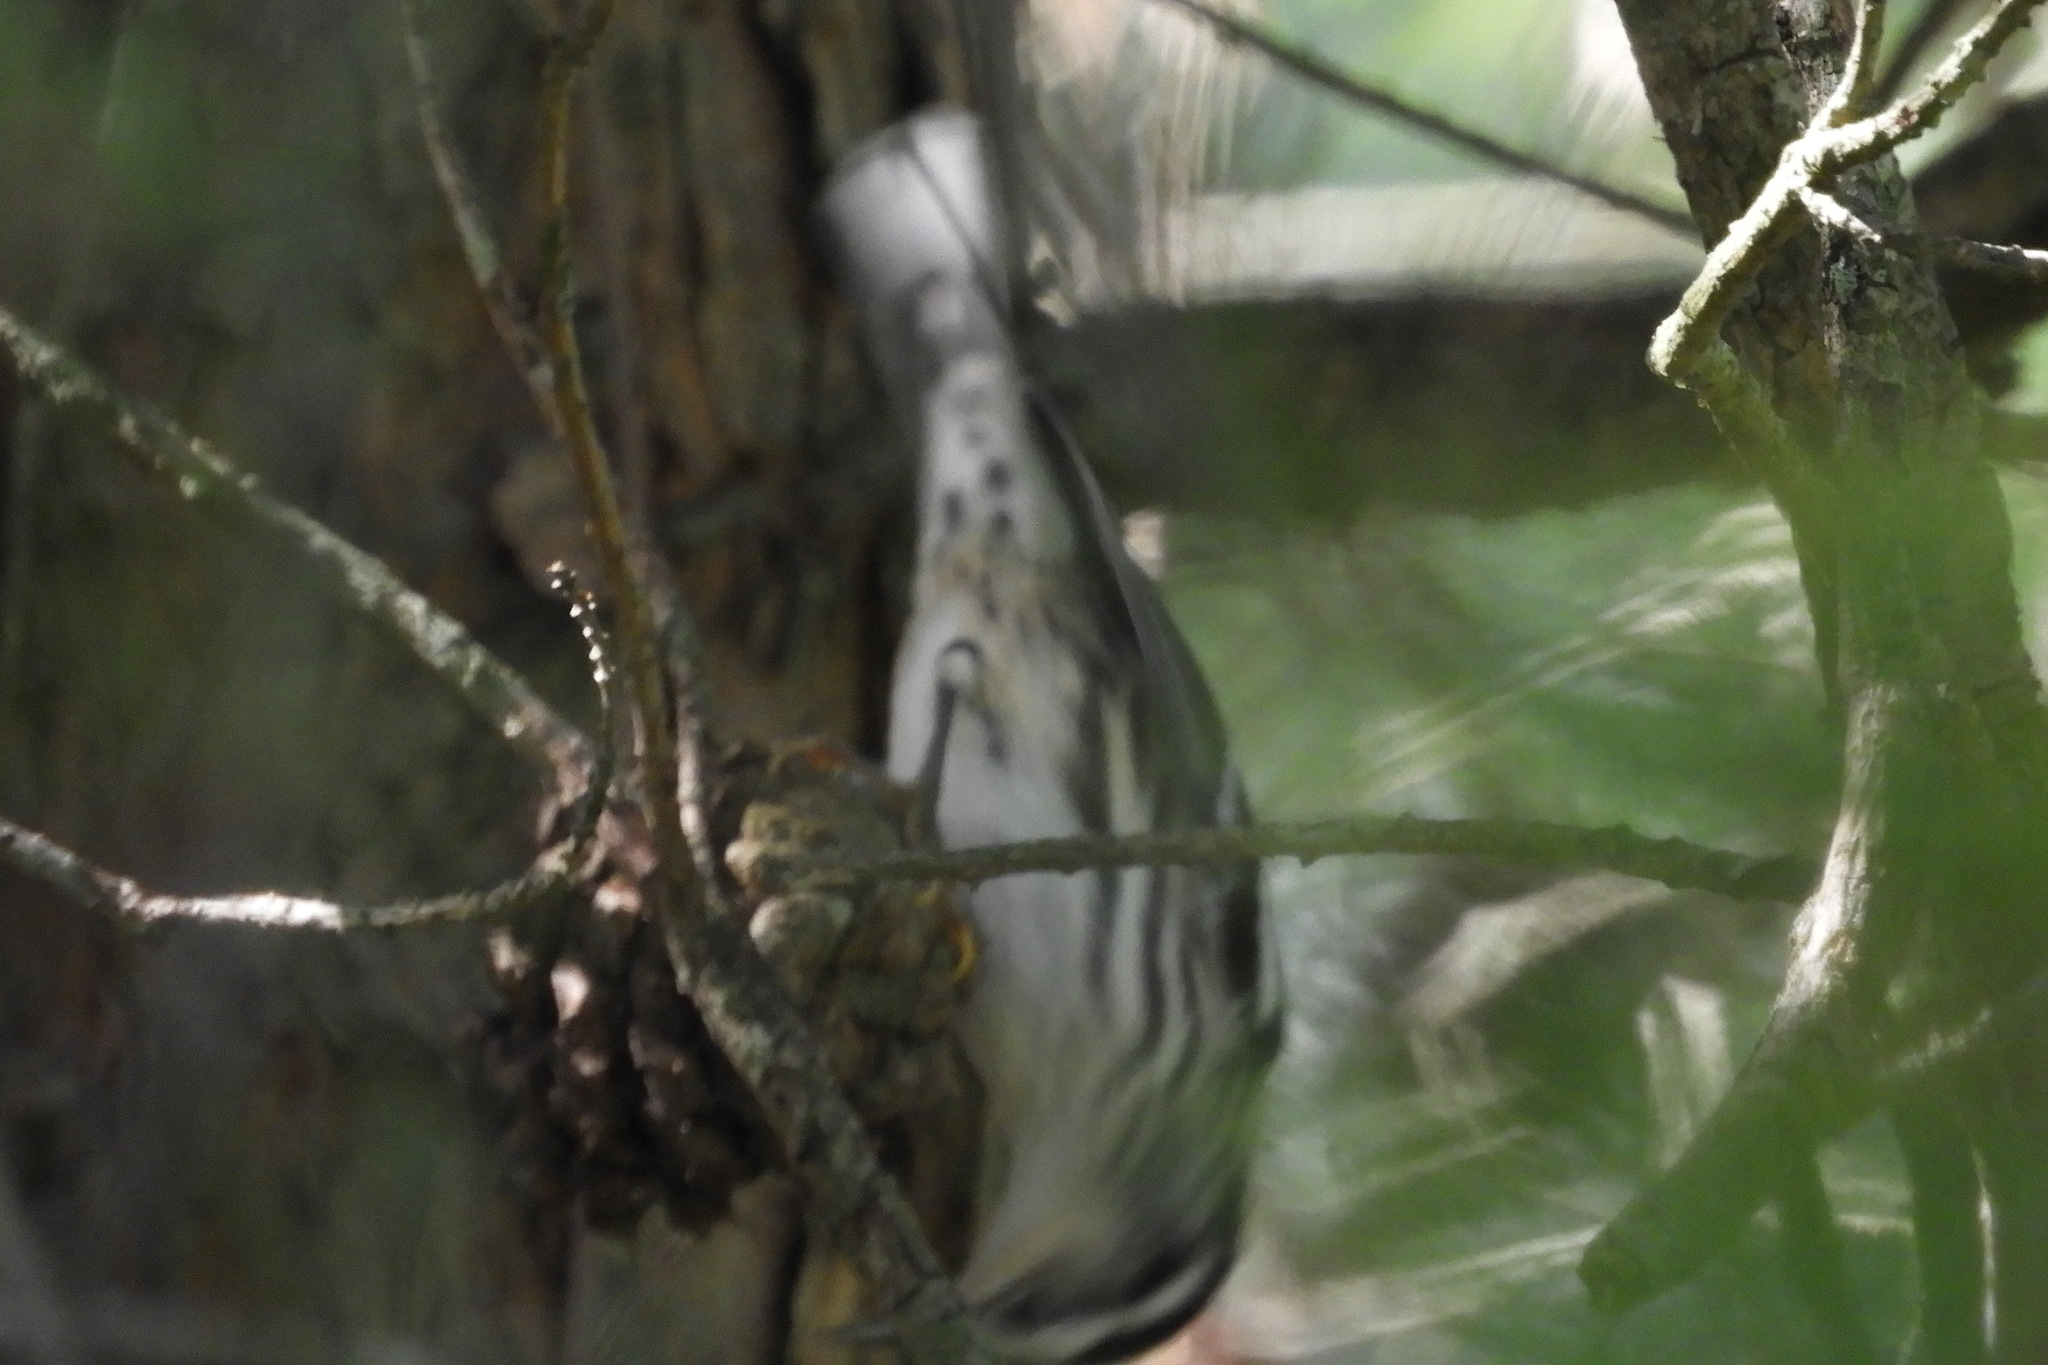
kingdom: Animalia
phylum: Chordata
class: Aves
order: Passeriformes
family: Parulidae
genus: Mniotilta
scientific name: Mniotilta varia
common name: Black-and-white warbler
